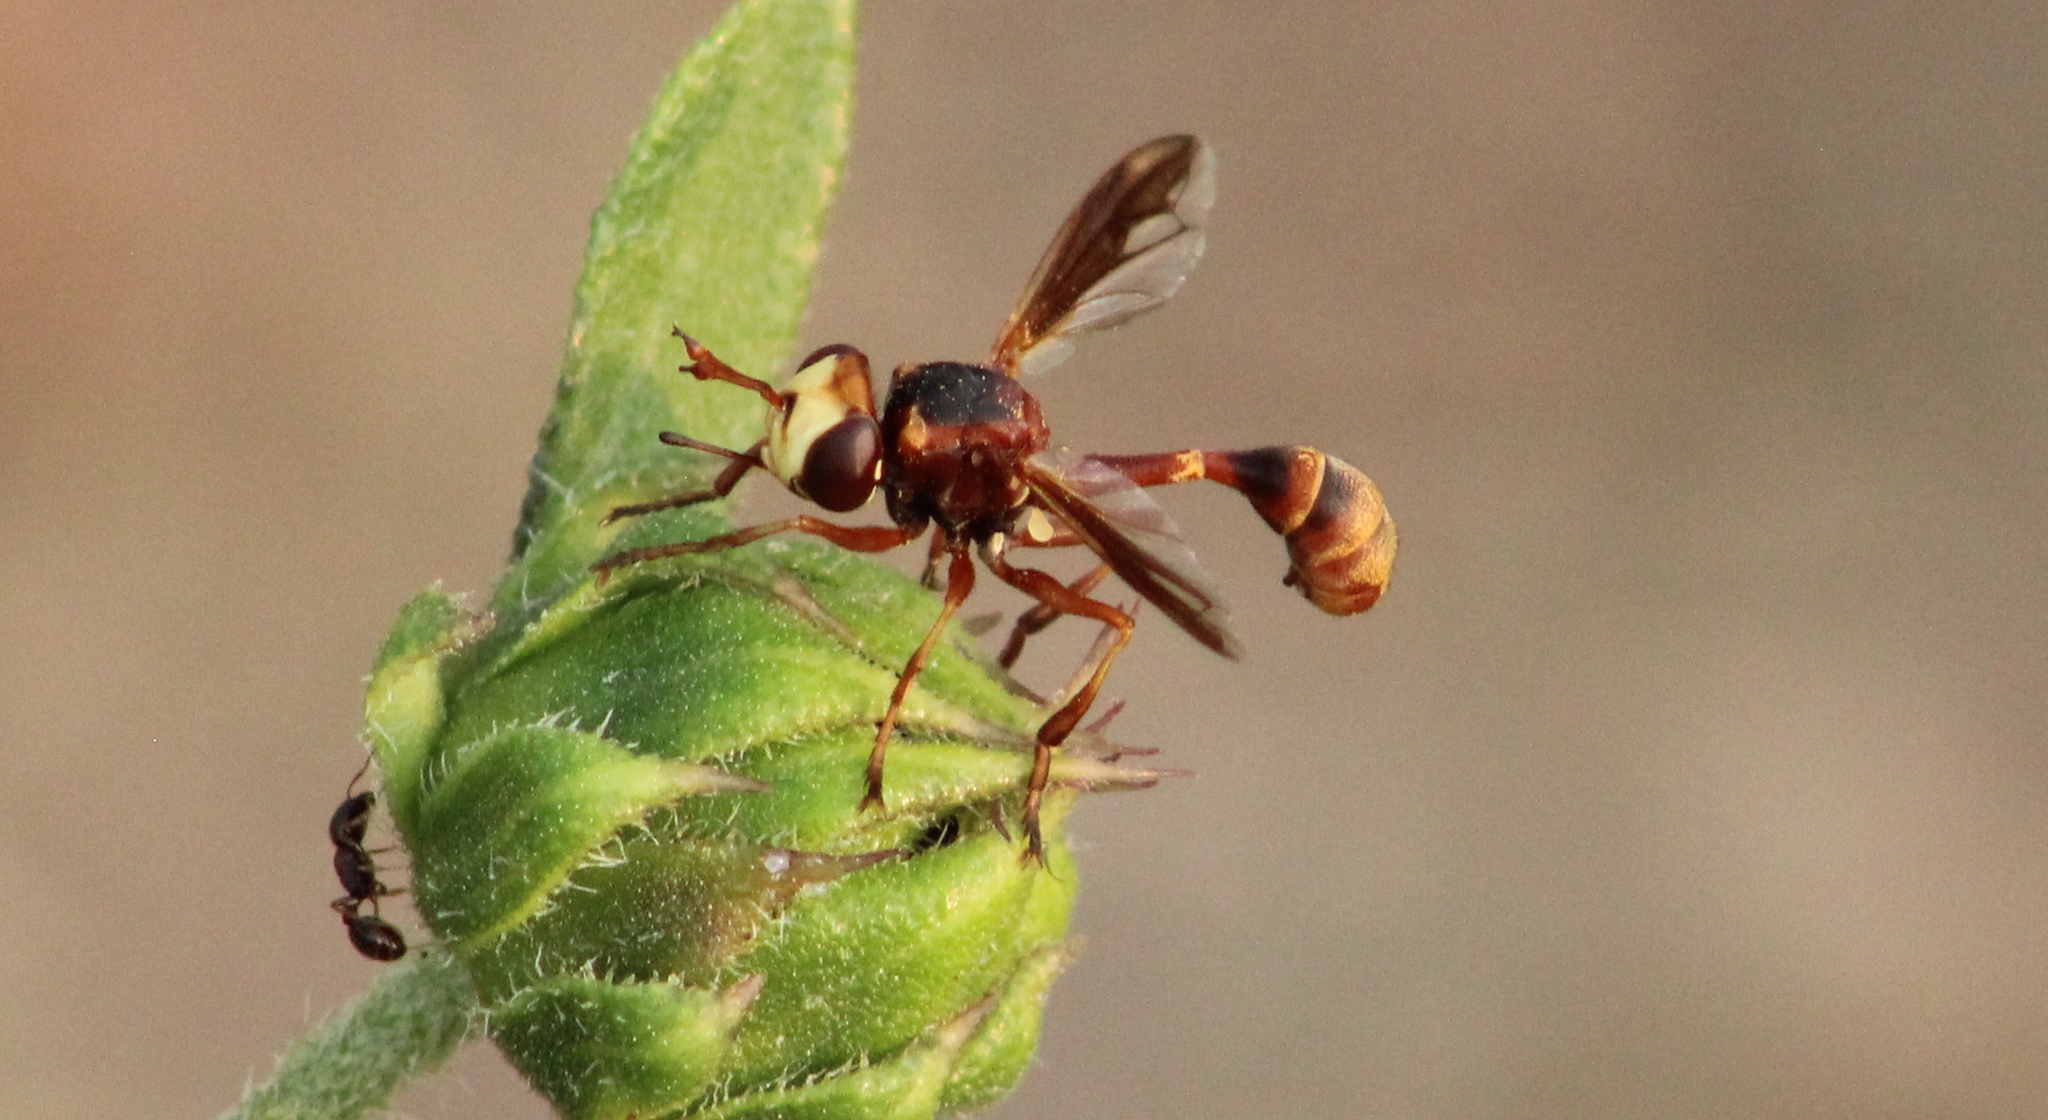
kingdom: Animalia
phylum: Arthropoda
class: Insecta
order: Diptera
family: Conopidae
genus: Physocephala
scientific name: Physocephala texana
